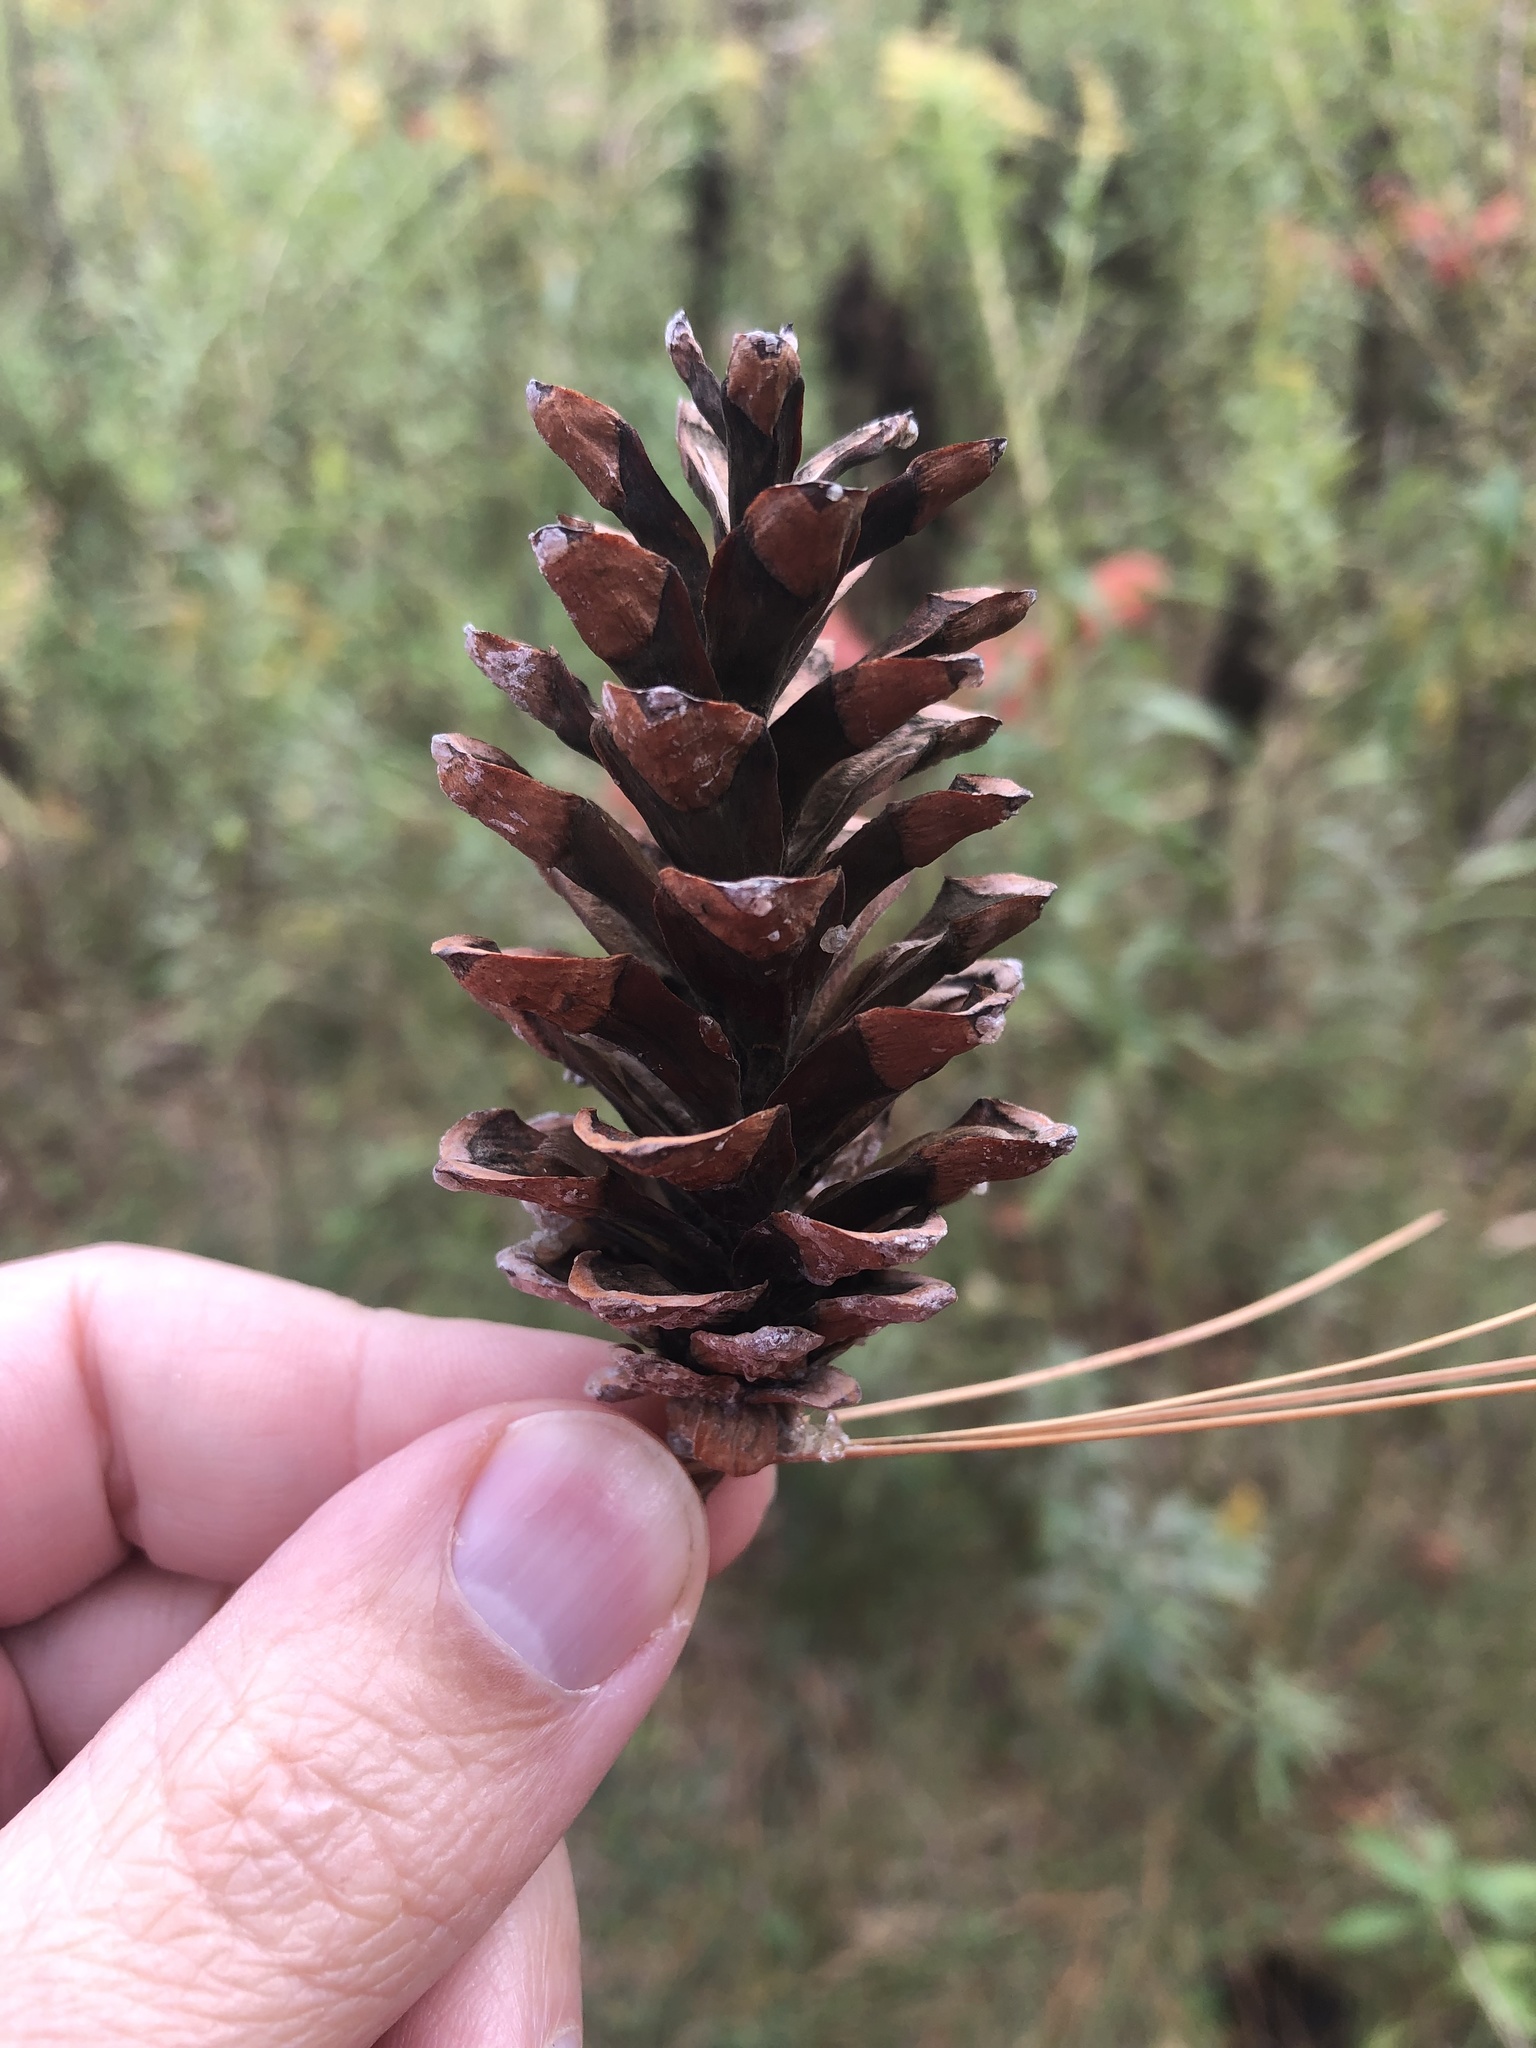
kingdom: Plantae
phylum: Tracheophyta
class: Pinopsida
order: Pinales
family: Pinaceae
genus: Pinus
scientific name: Pinus strobus
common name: Weymouth pine
